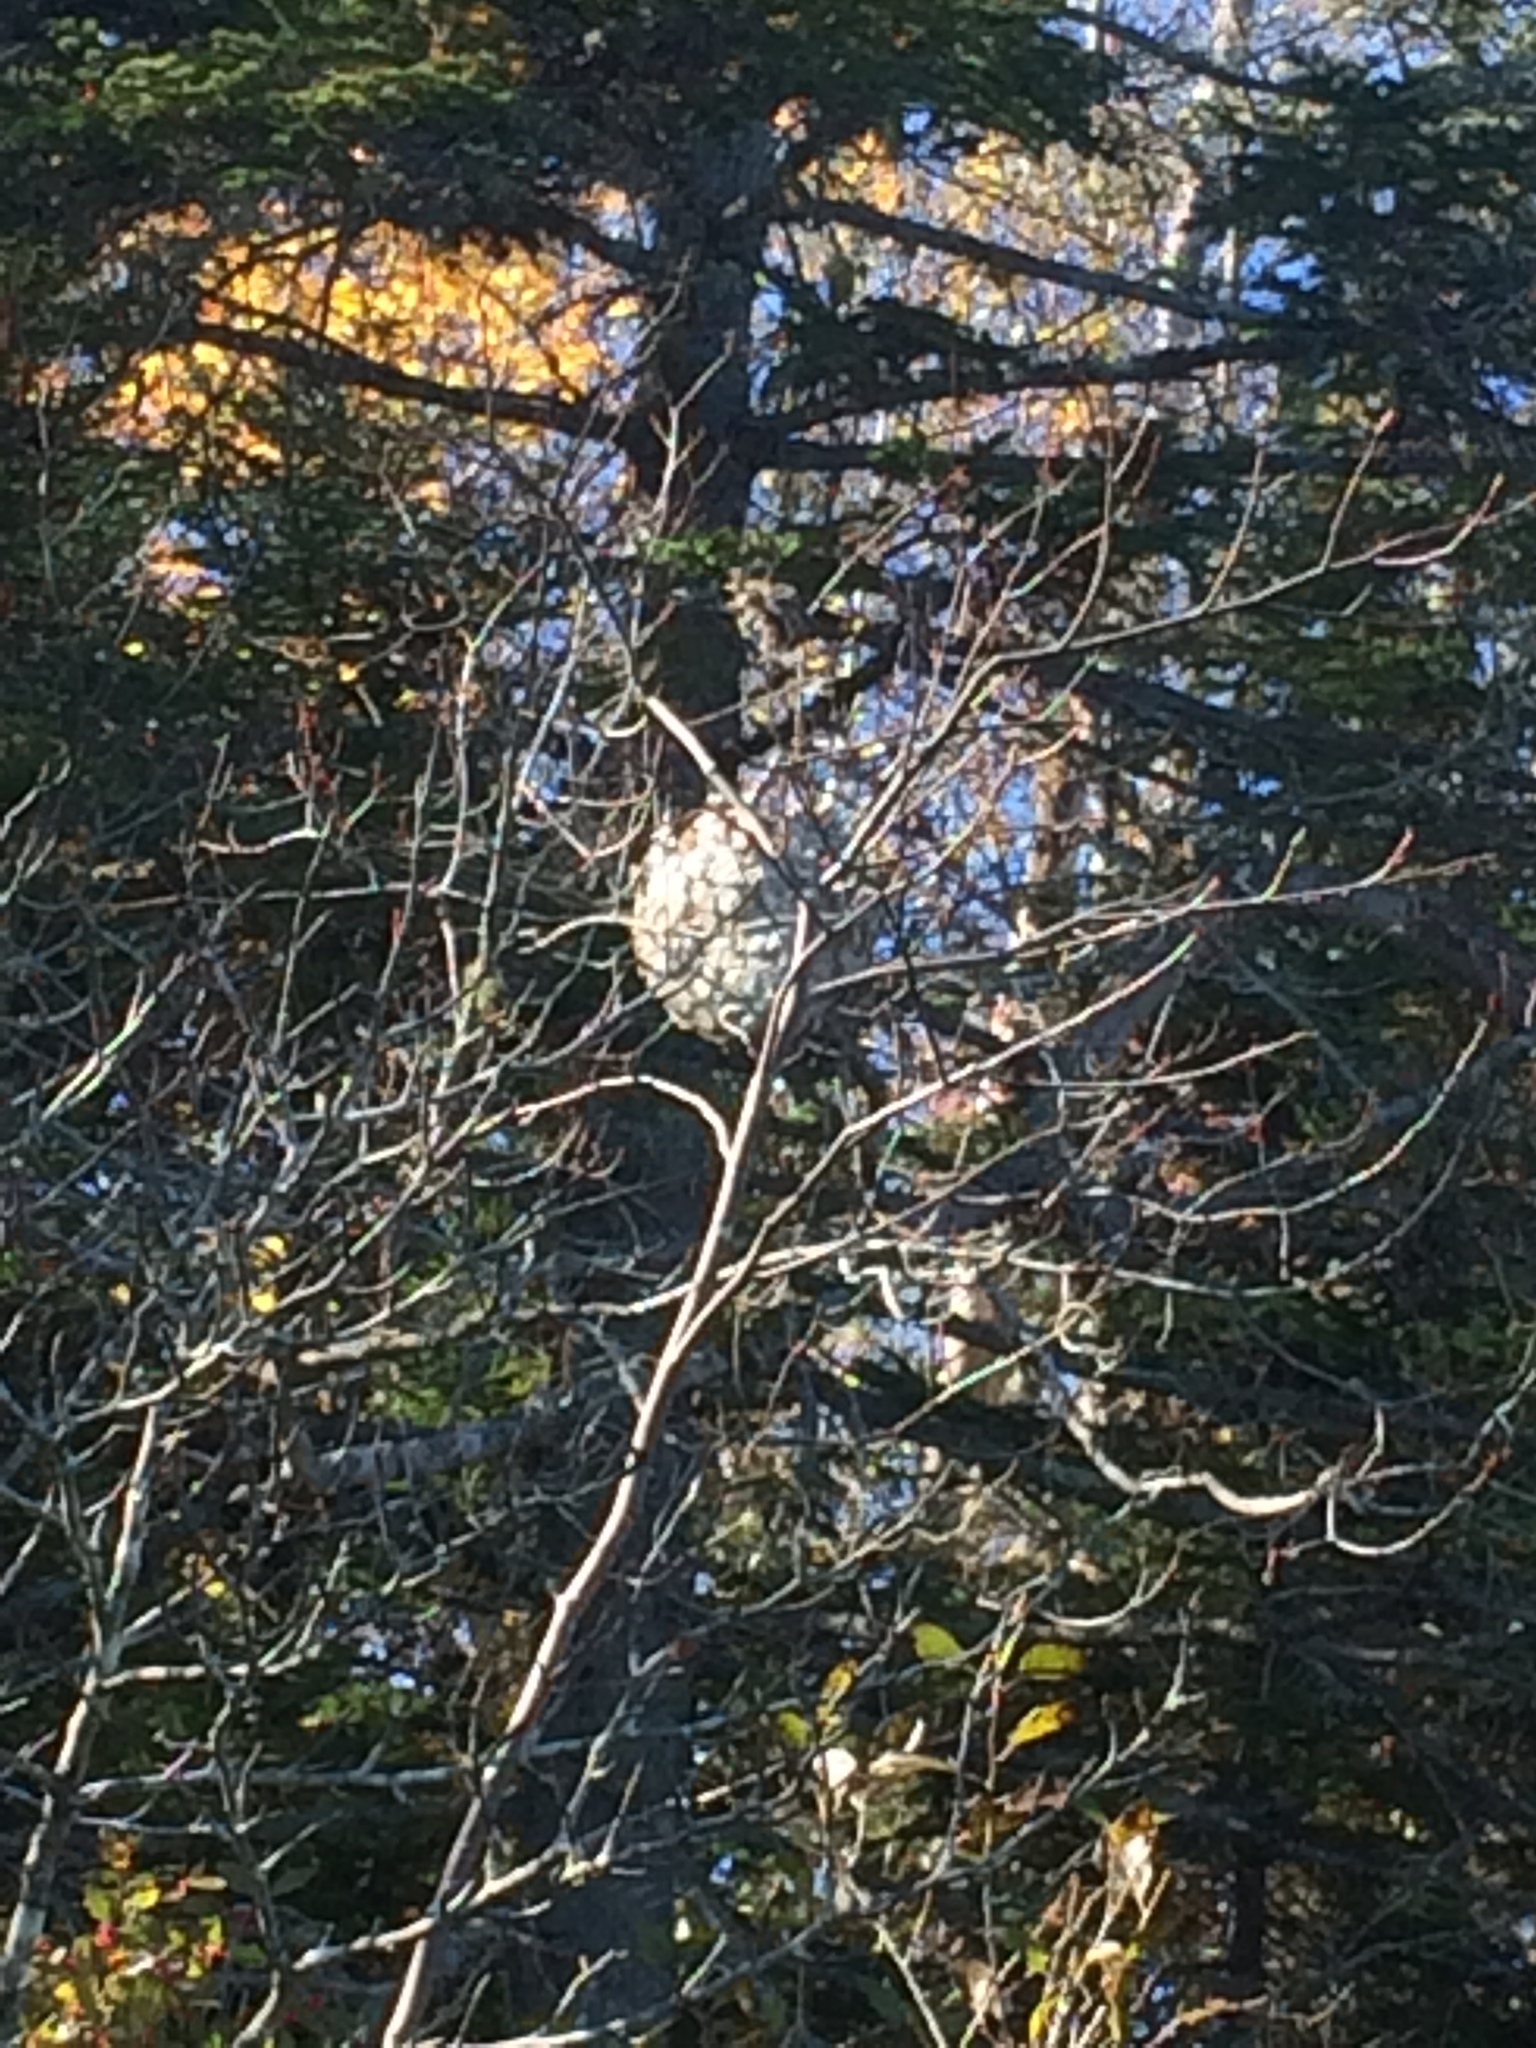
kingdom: Animalia
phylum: Arthropoda
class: Insecta
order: Hymenoptera
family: Vespidae
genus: Dolichovespula
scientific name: Dolichovespula
